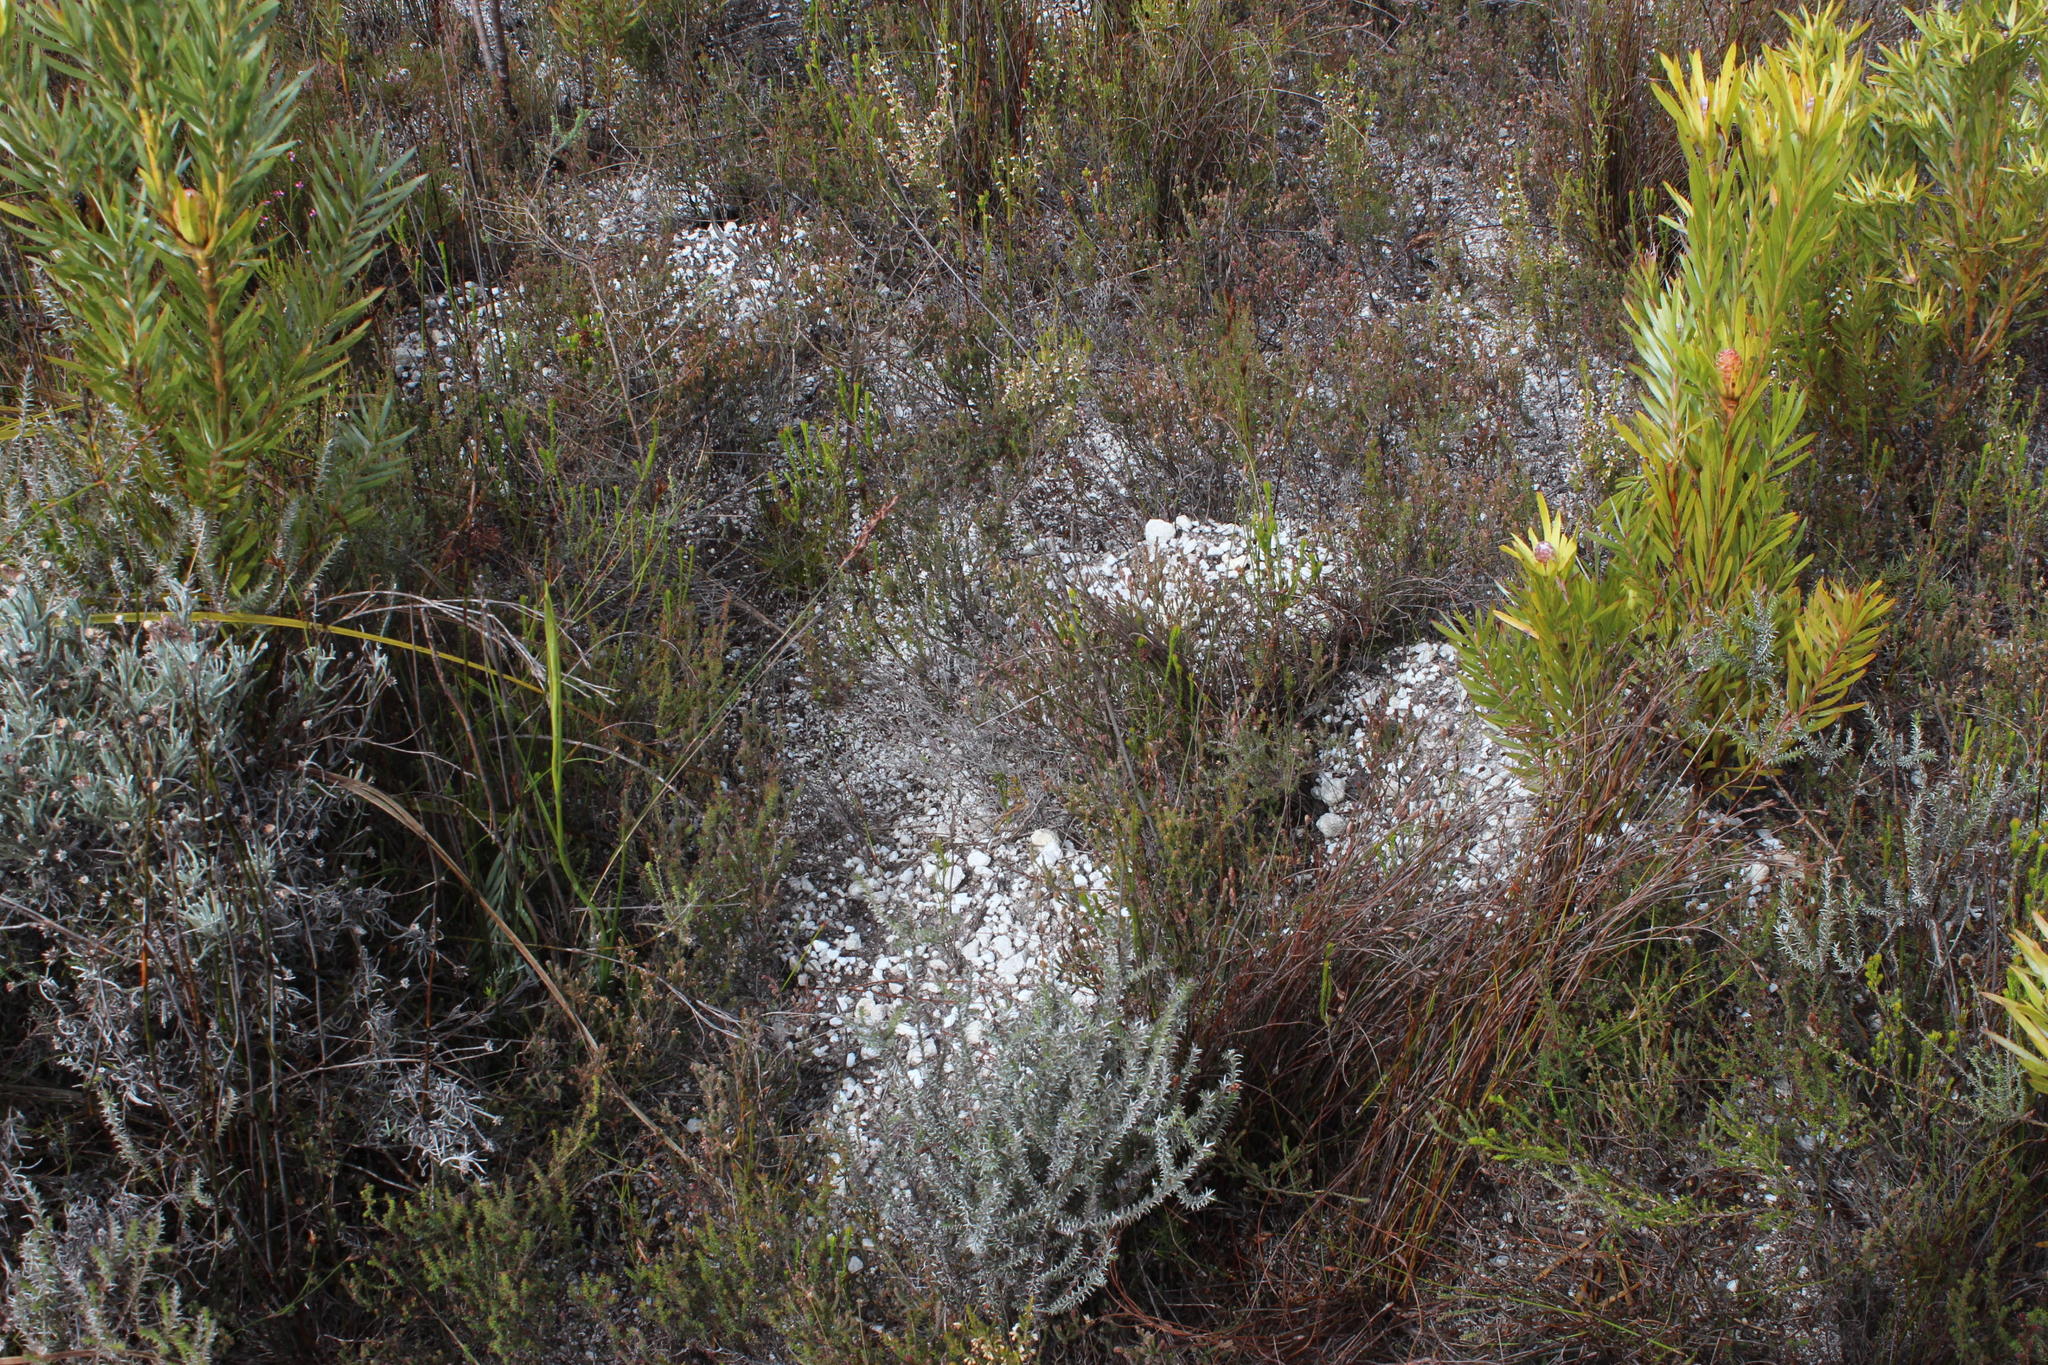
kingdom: Animalia
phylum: Chordata
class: Mammalia
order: Rodentia
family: Bathyergidae
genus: Georychus
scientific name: Georychus capensis
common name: Cape mole-rat
